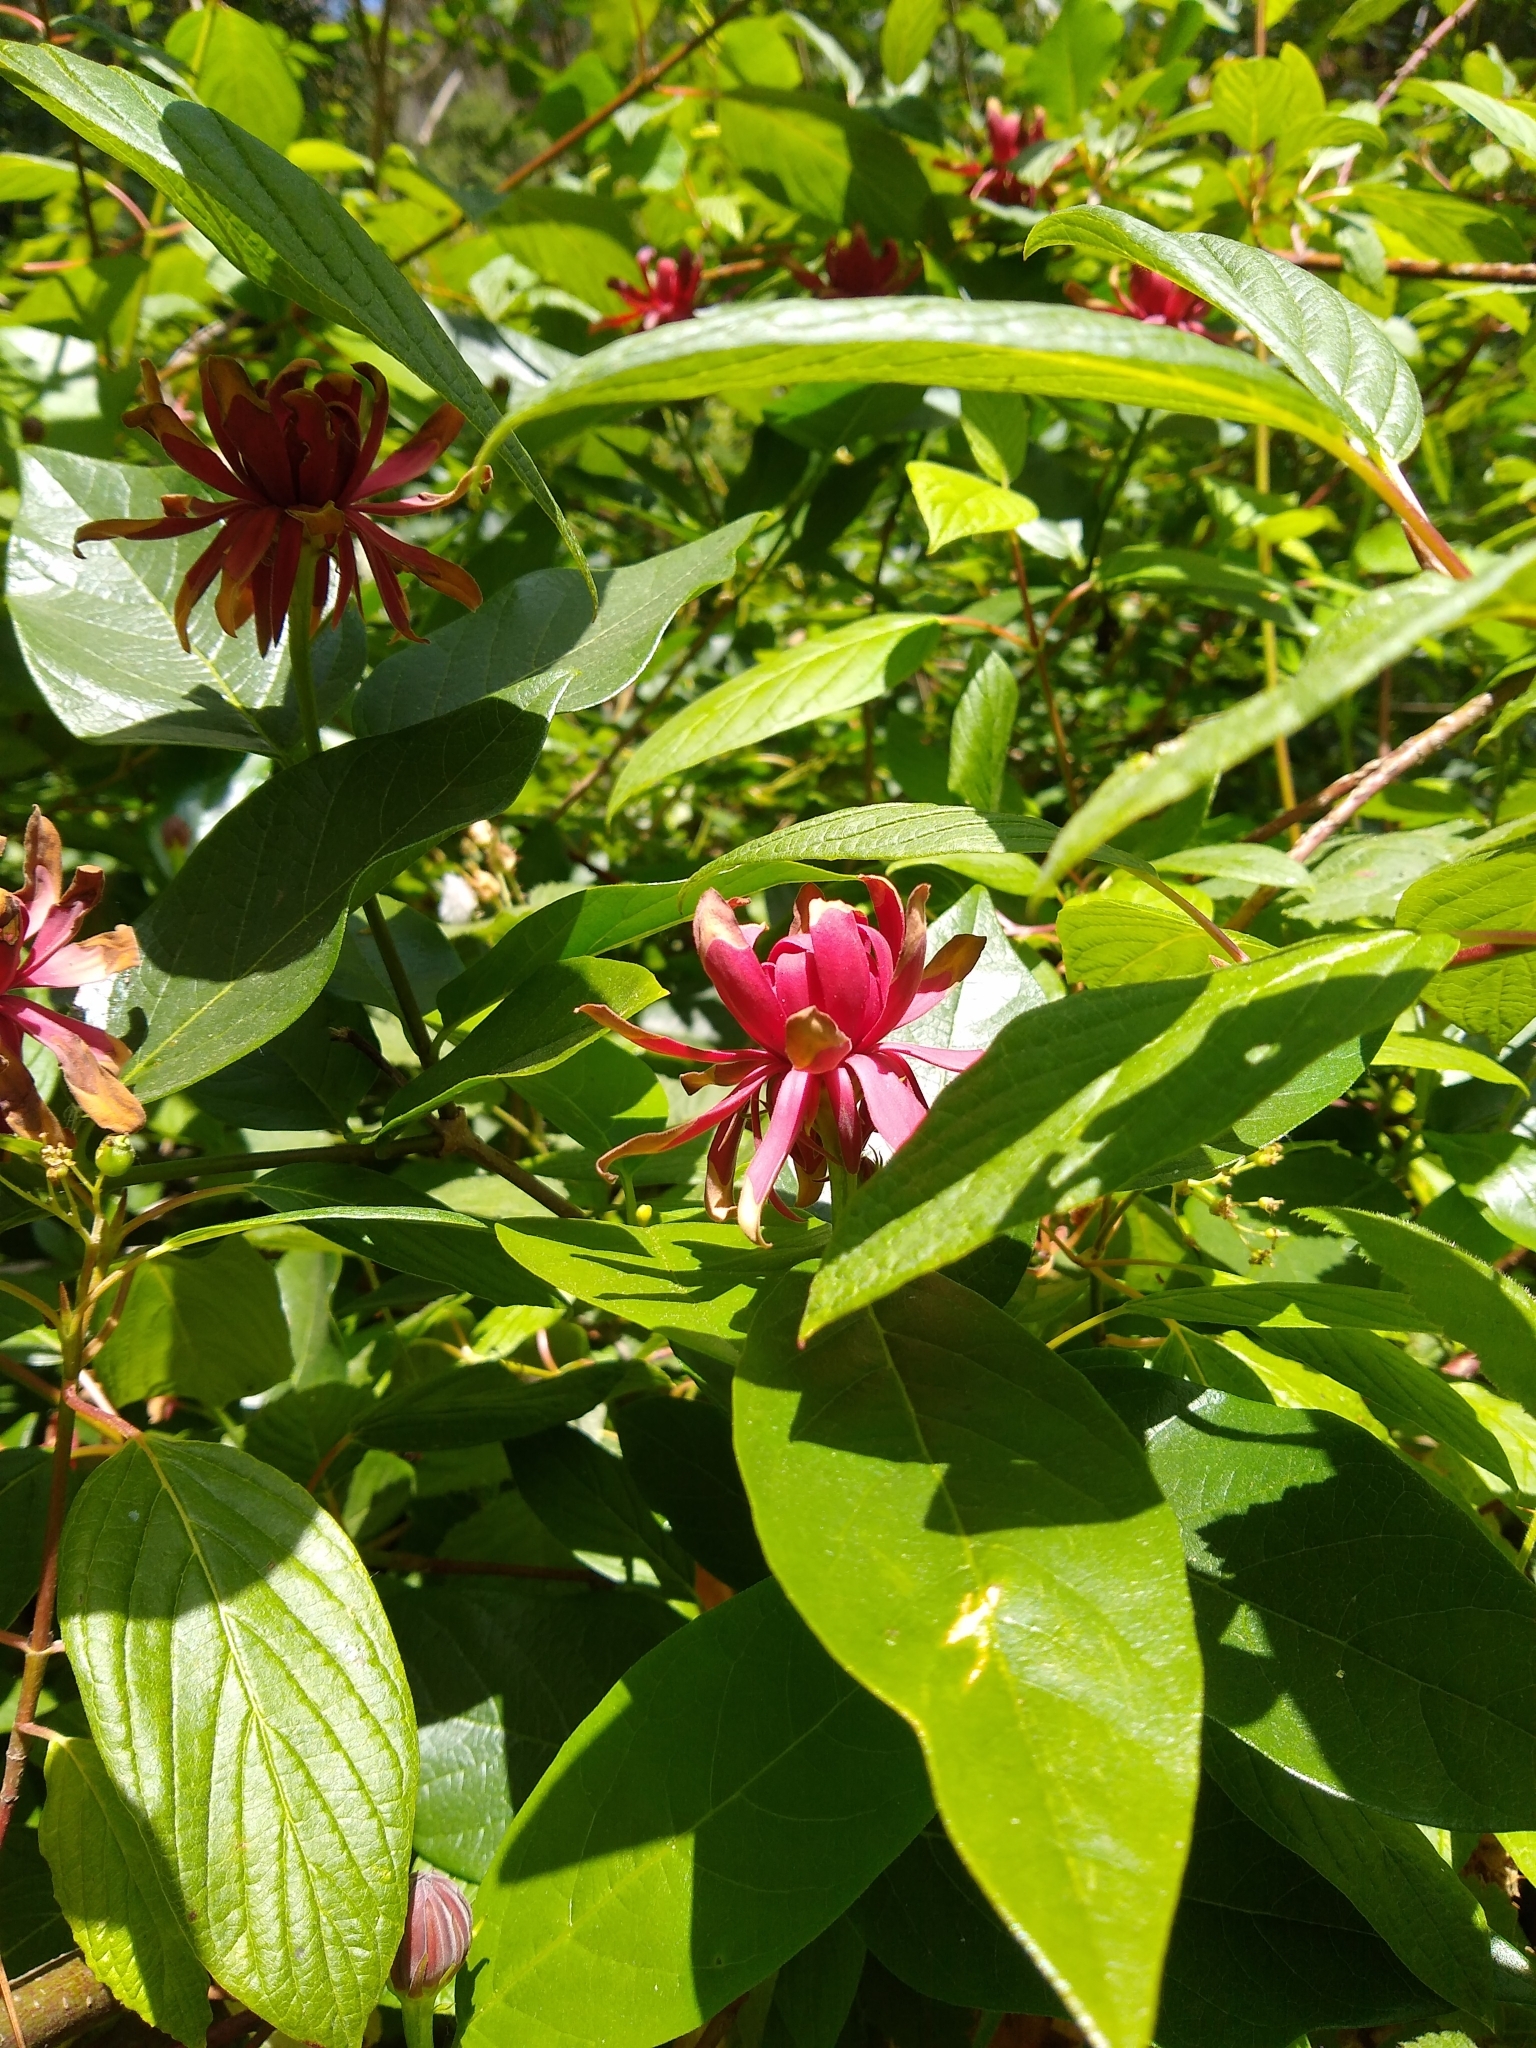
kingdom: Plantae
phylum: Tracheophyta
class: Magnoliopsida
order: Laurales
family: Calycanthaceae
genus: Calycanthus
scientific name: Calycanthus occidentalis
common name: California spicebush
